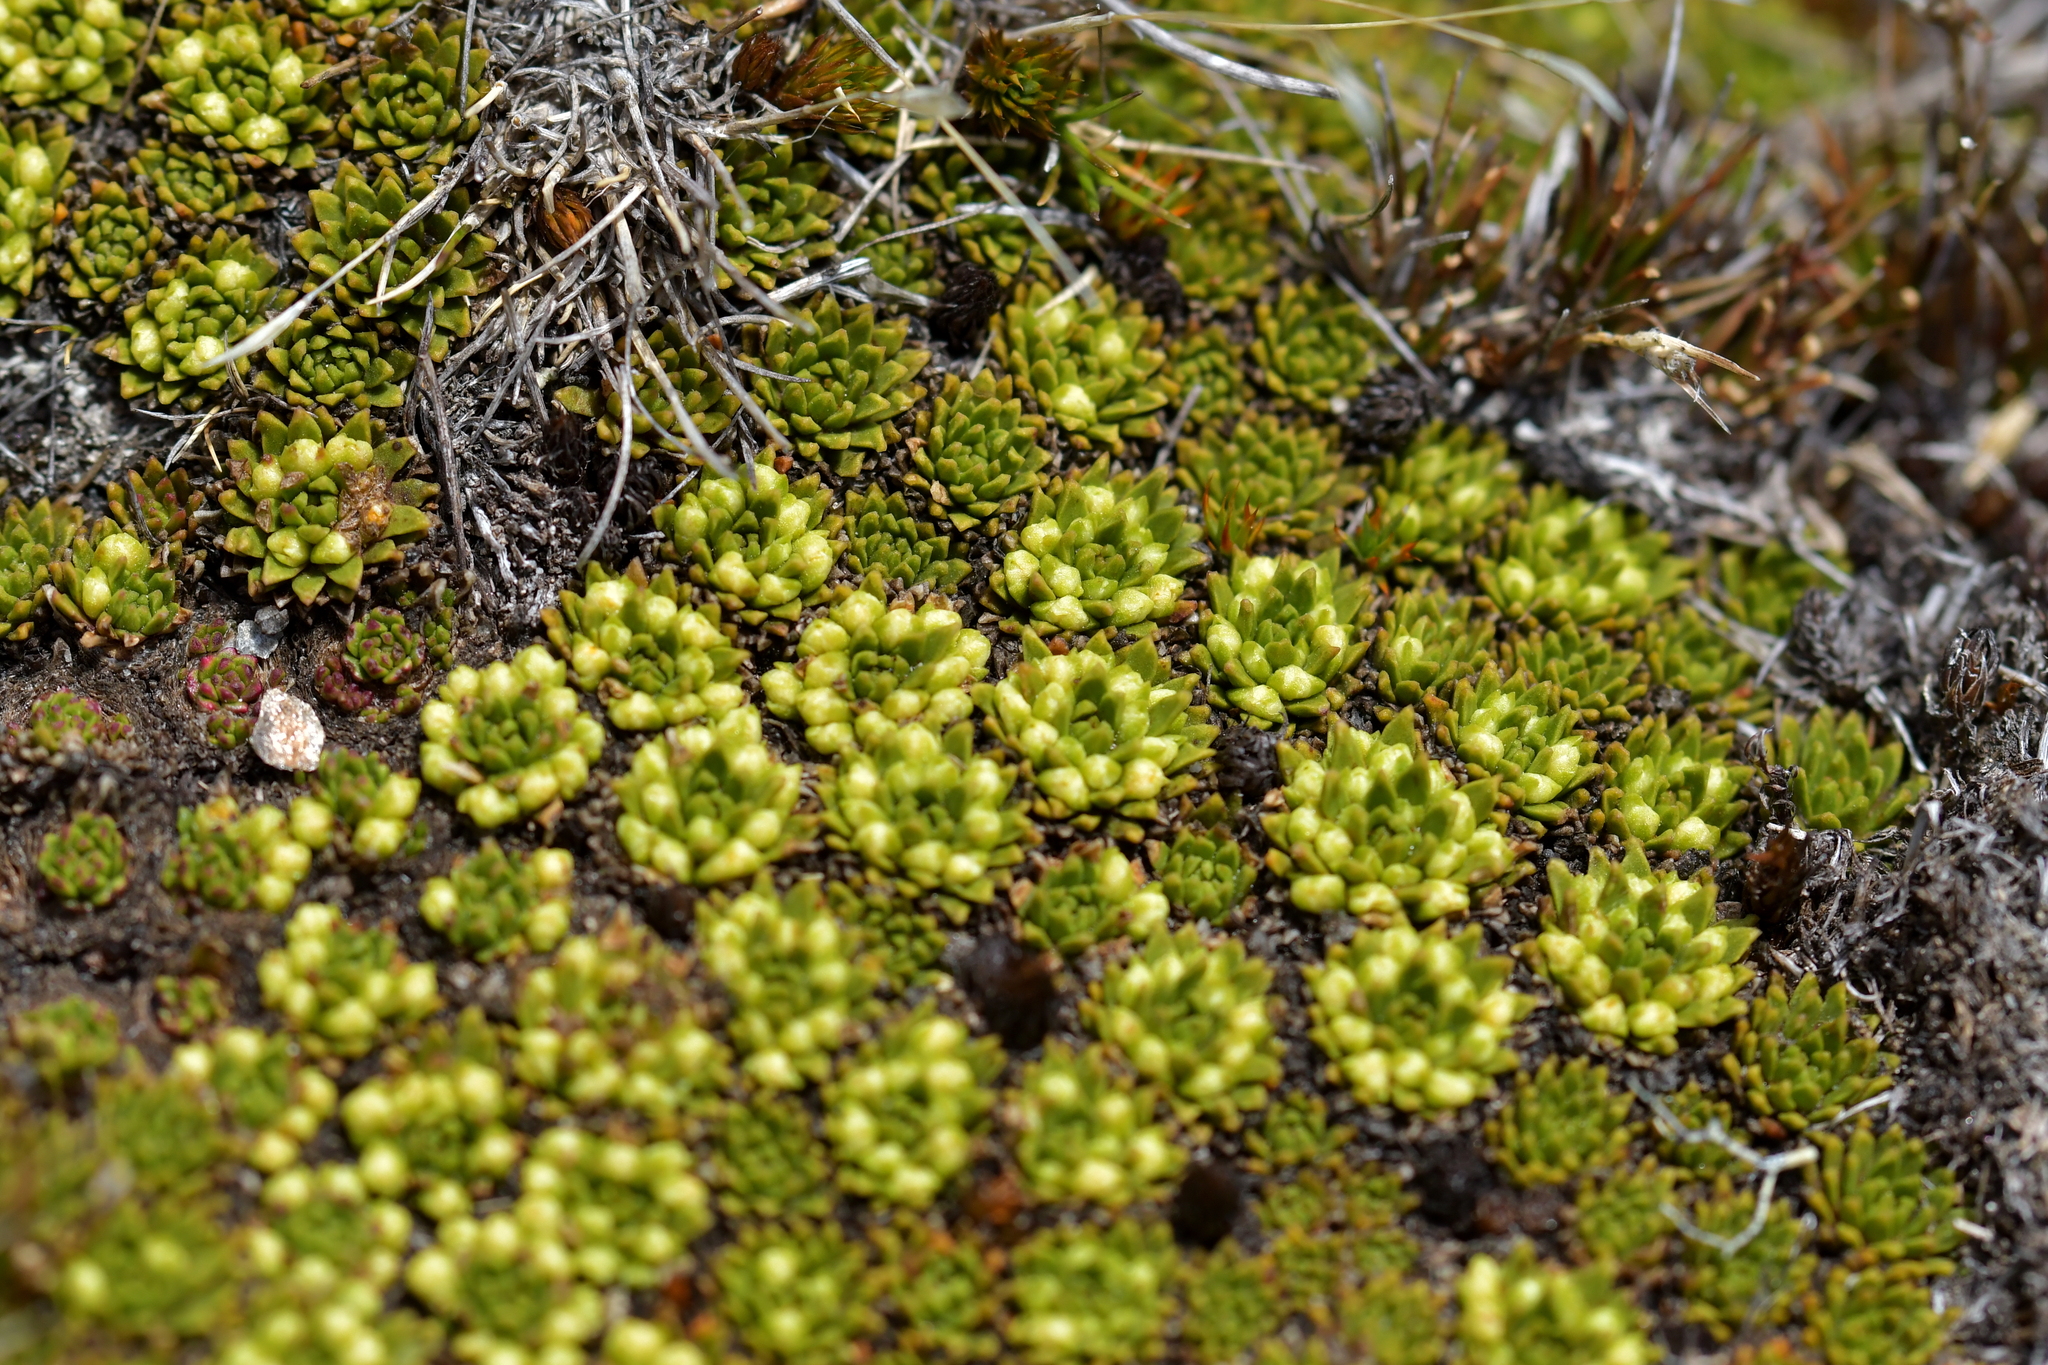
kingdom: Plantae
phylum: Tracheophyta
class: Magnoliopsida
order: Caryophyllales
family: Montiaceae
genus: Hectorella
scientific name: Hectorella caespitosa
